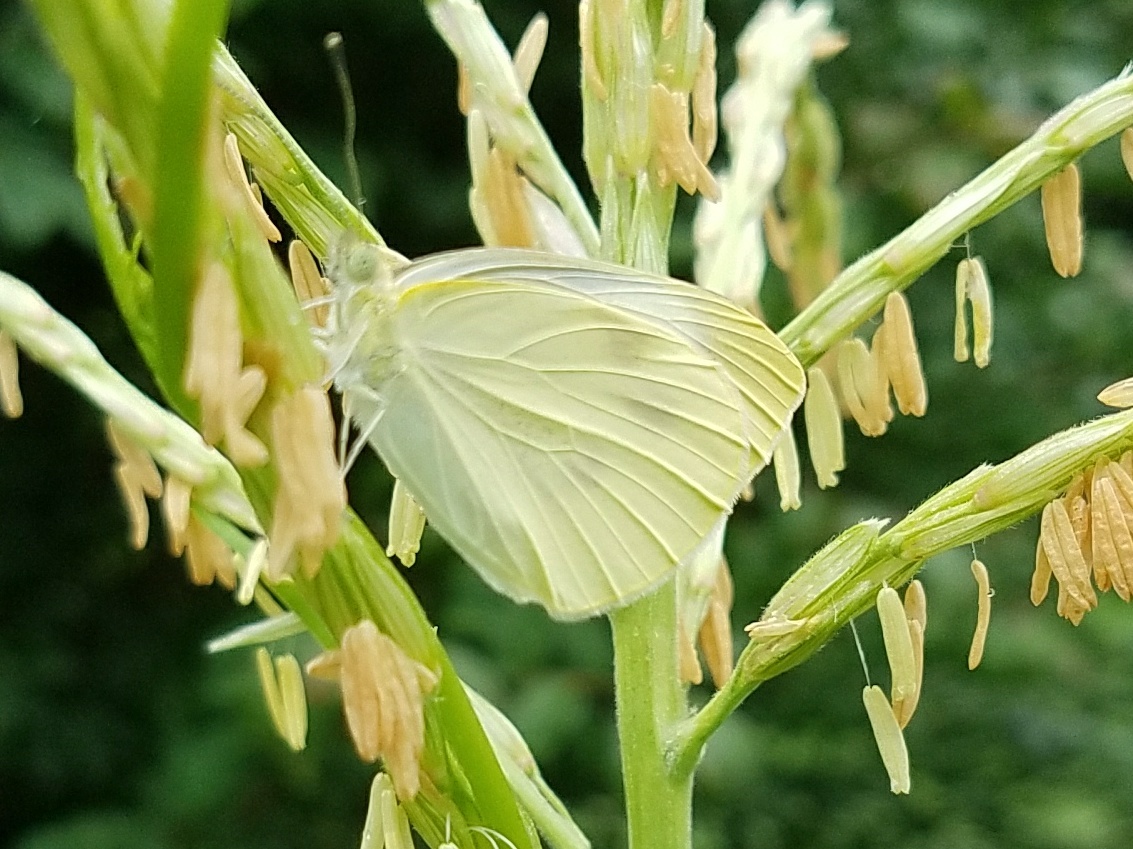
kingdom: Animalia
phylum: Arthropoda
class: Insecta
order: Lepidoptera
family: Pieridae
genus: Pieris
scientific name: Pieris rapae
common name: Small white
